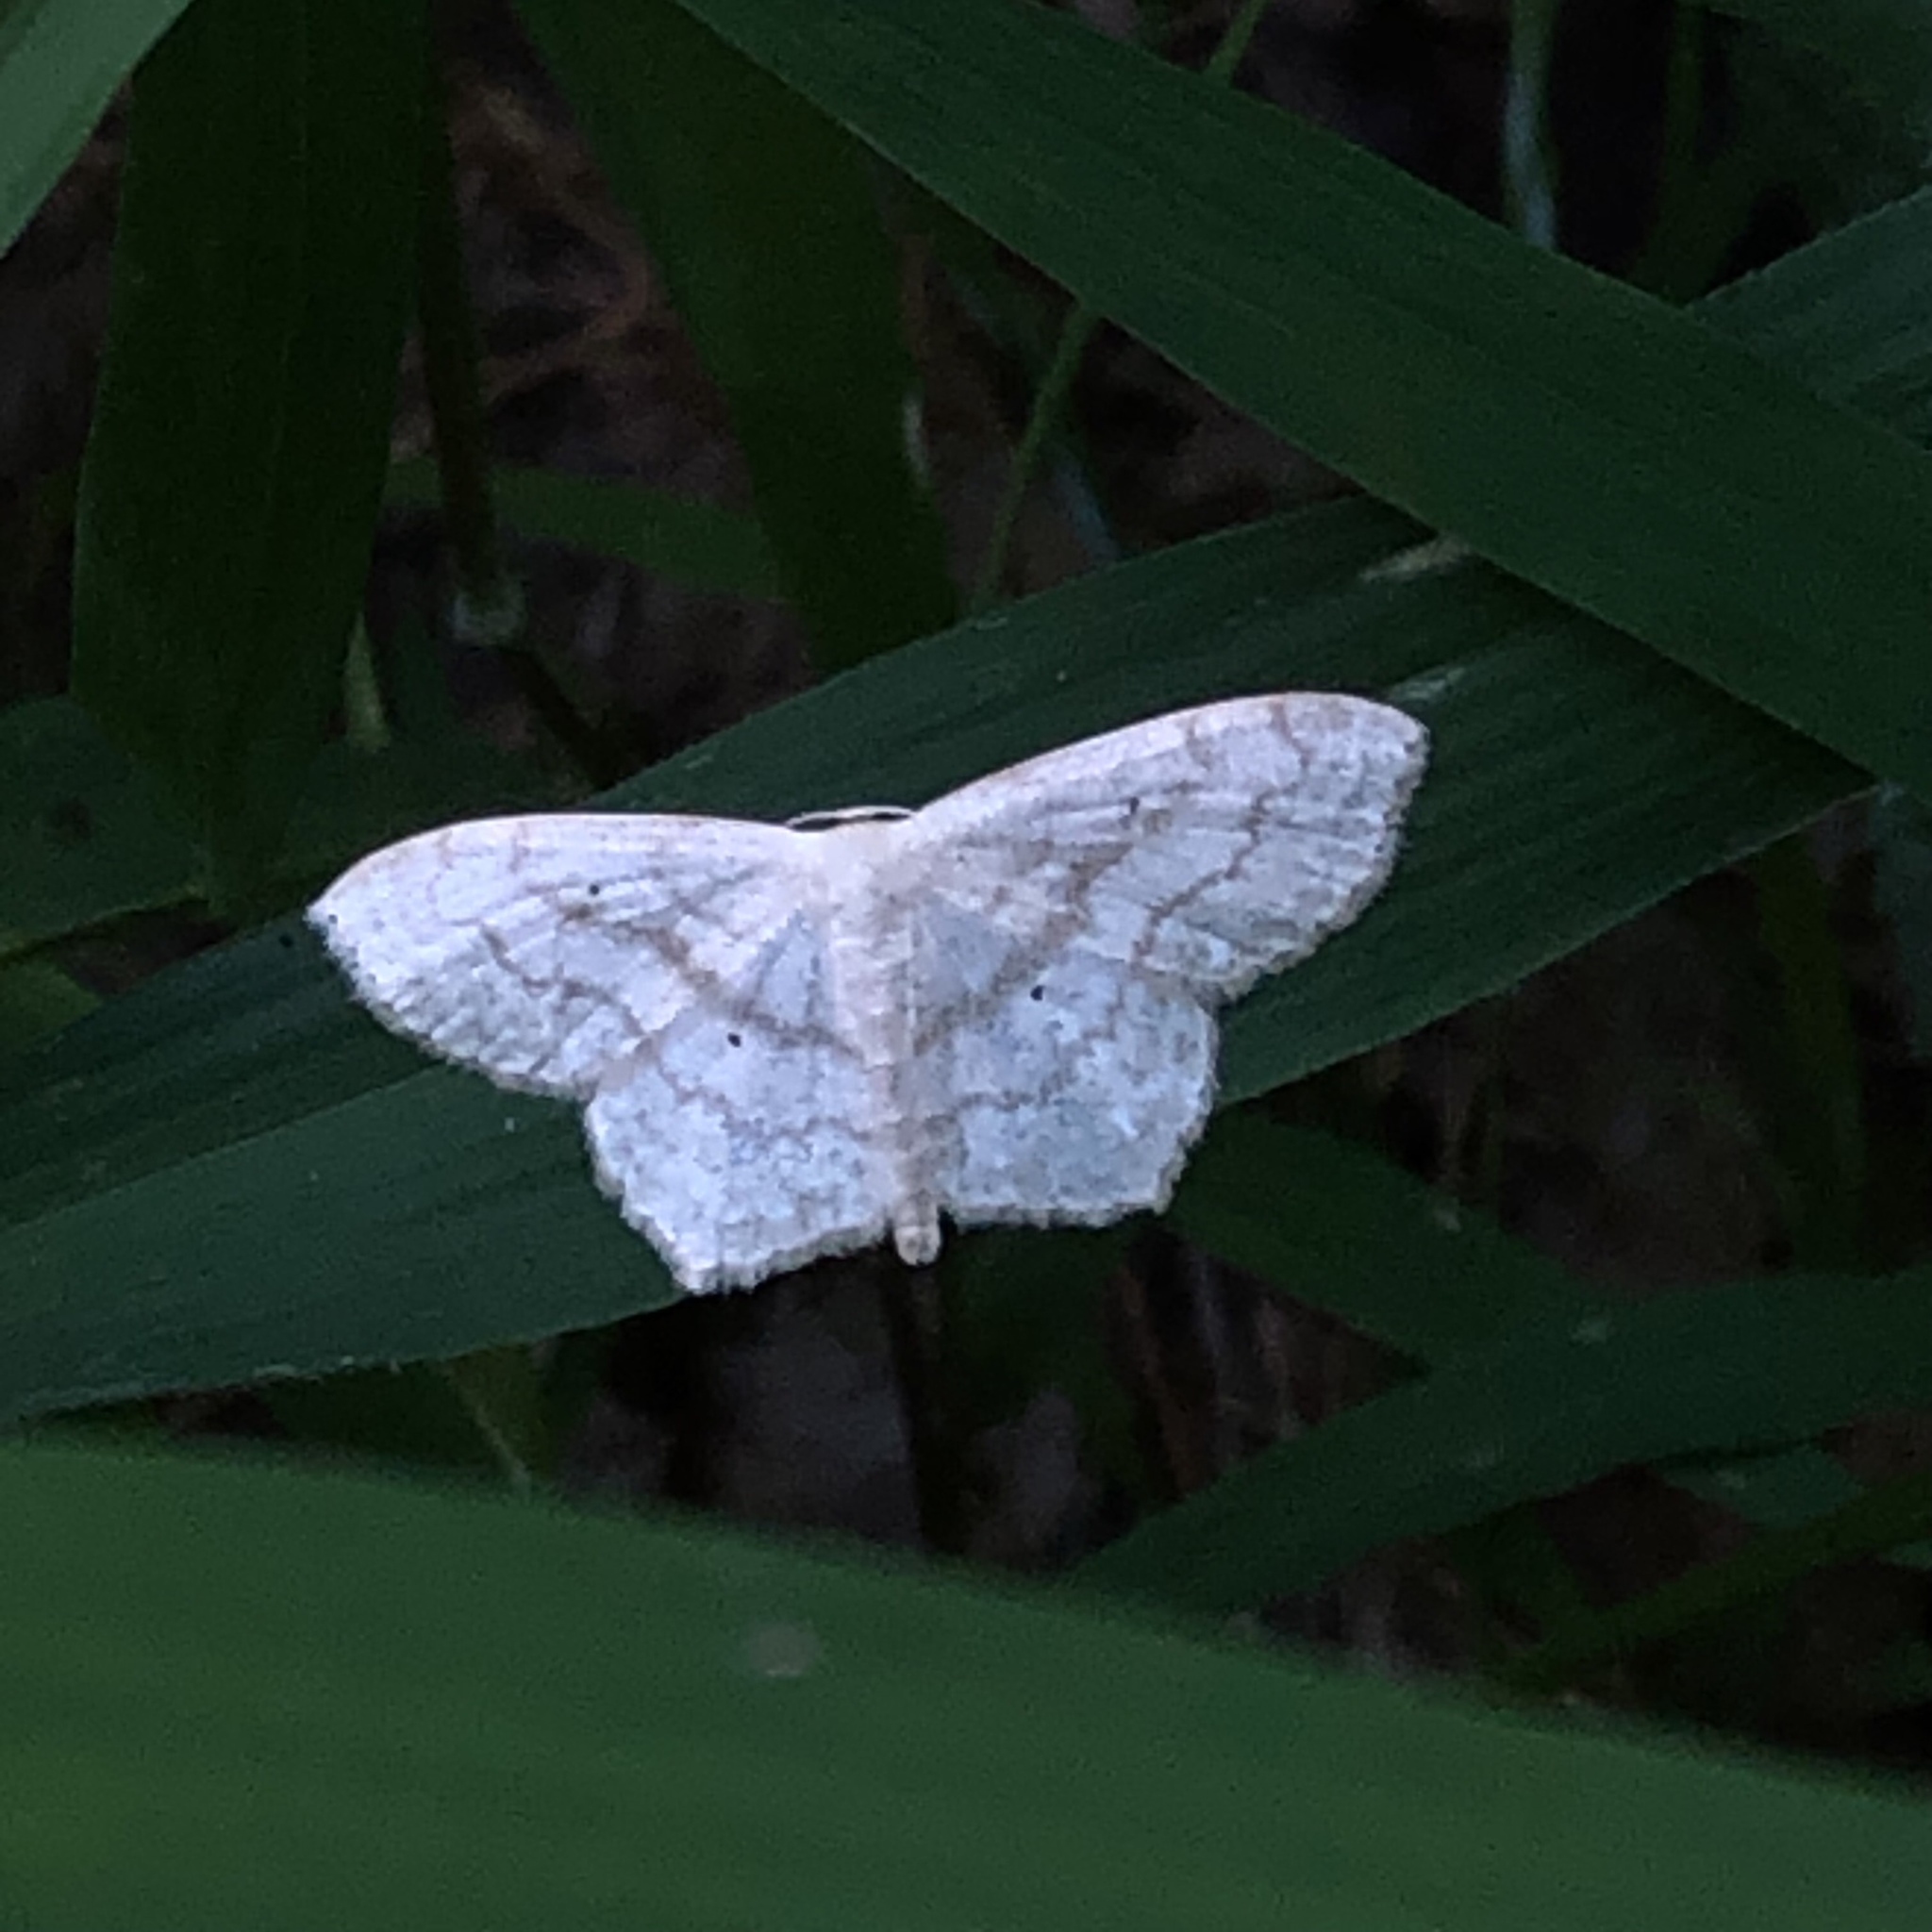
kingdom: Animalia
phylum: Arthropoda
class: Insecta
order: Lepidoptera
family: Geometridae
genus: Scopula
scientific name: Scopula limboundata
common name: Large lace border
